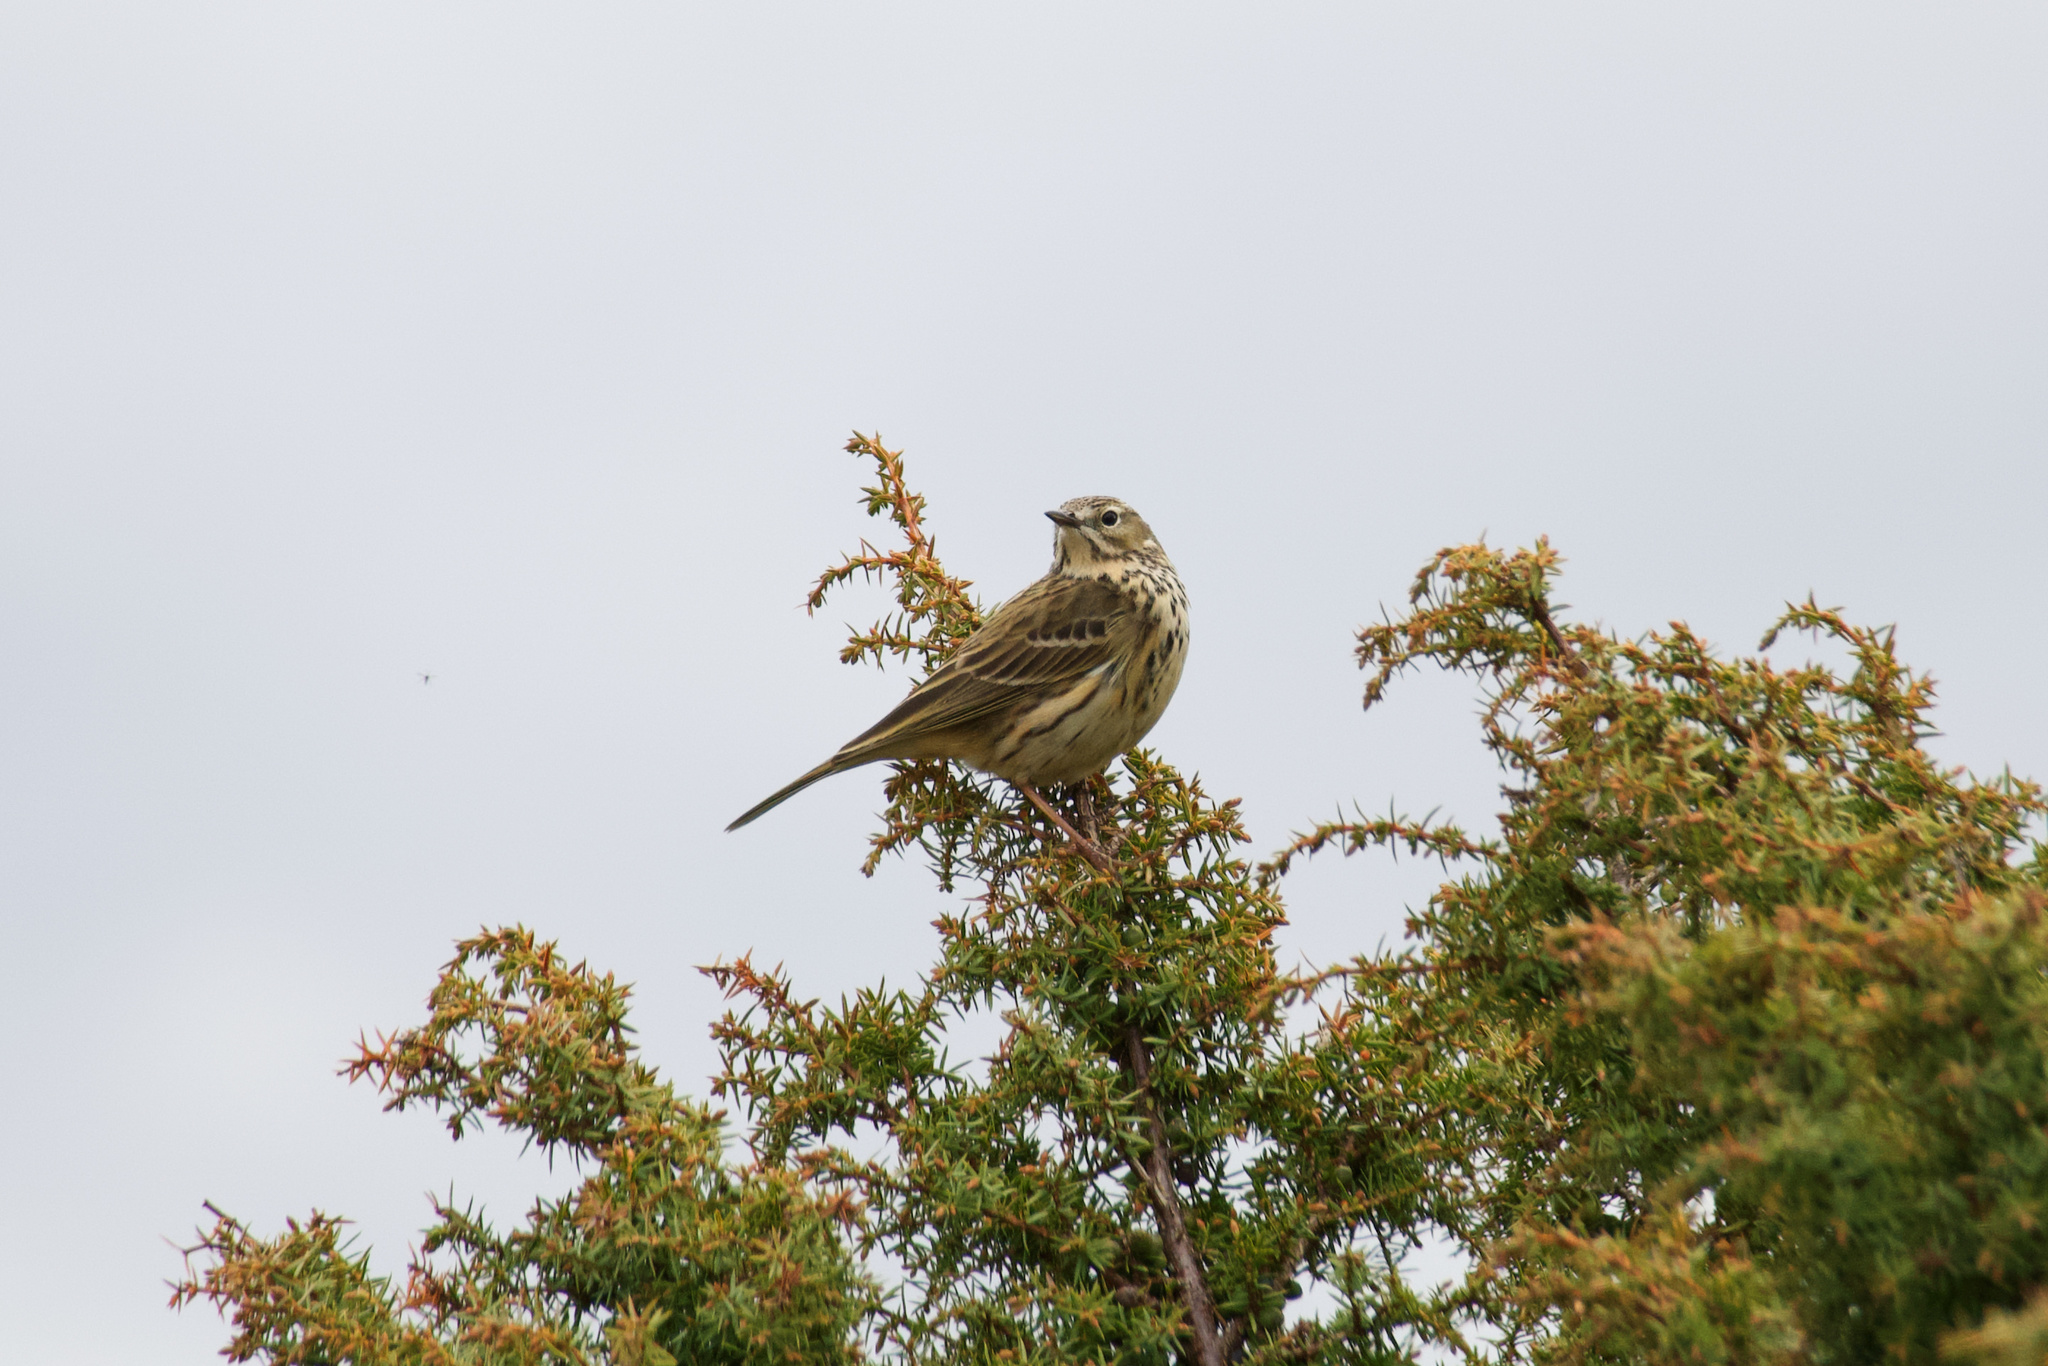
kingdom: Animalia
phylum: Chordata
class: Aves
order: Passeriformes
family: Motacillidae
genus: Anthus
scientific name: Anthus pratensis
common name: Meadow pipit
